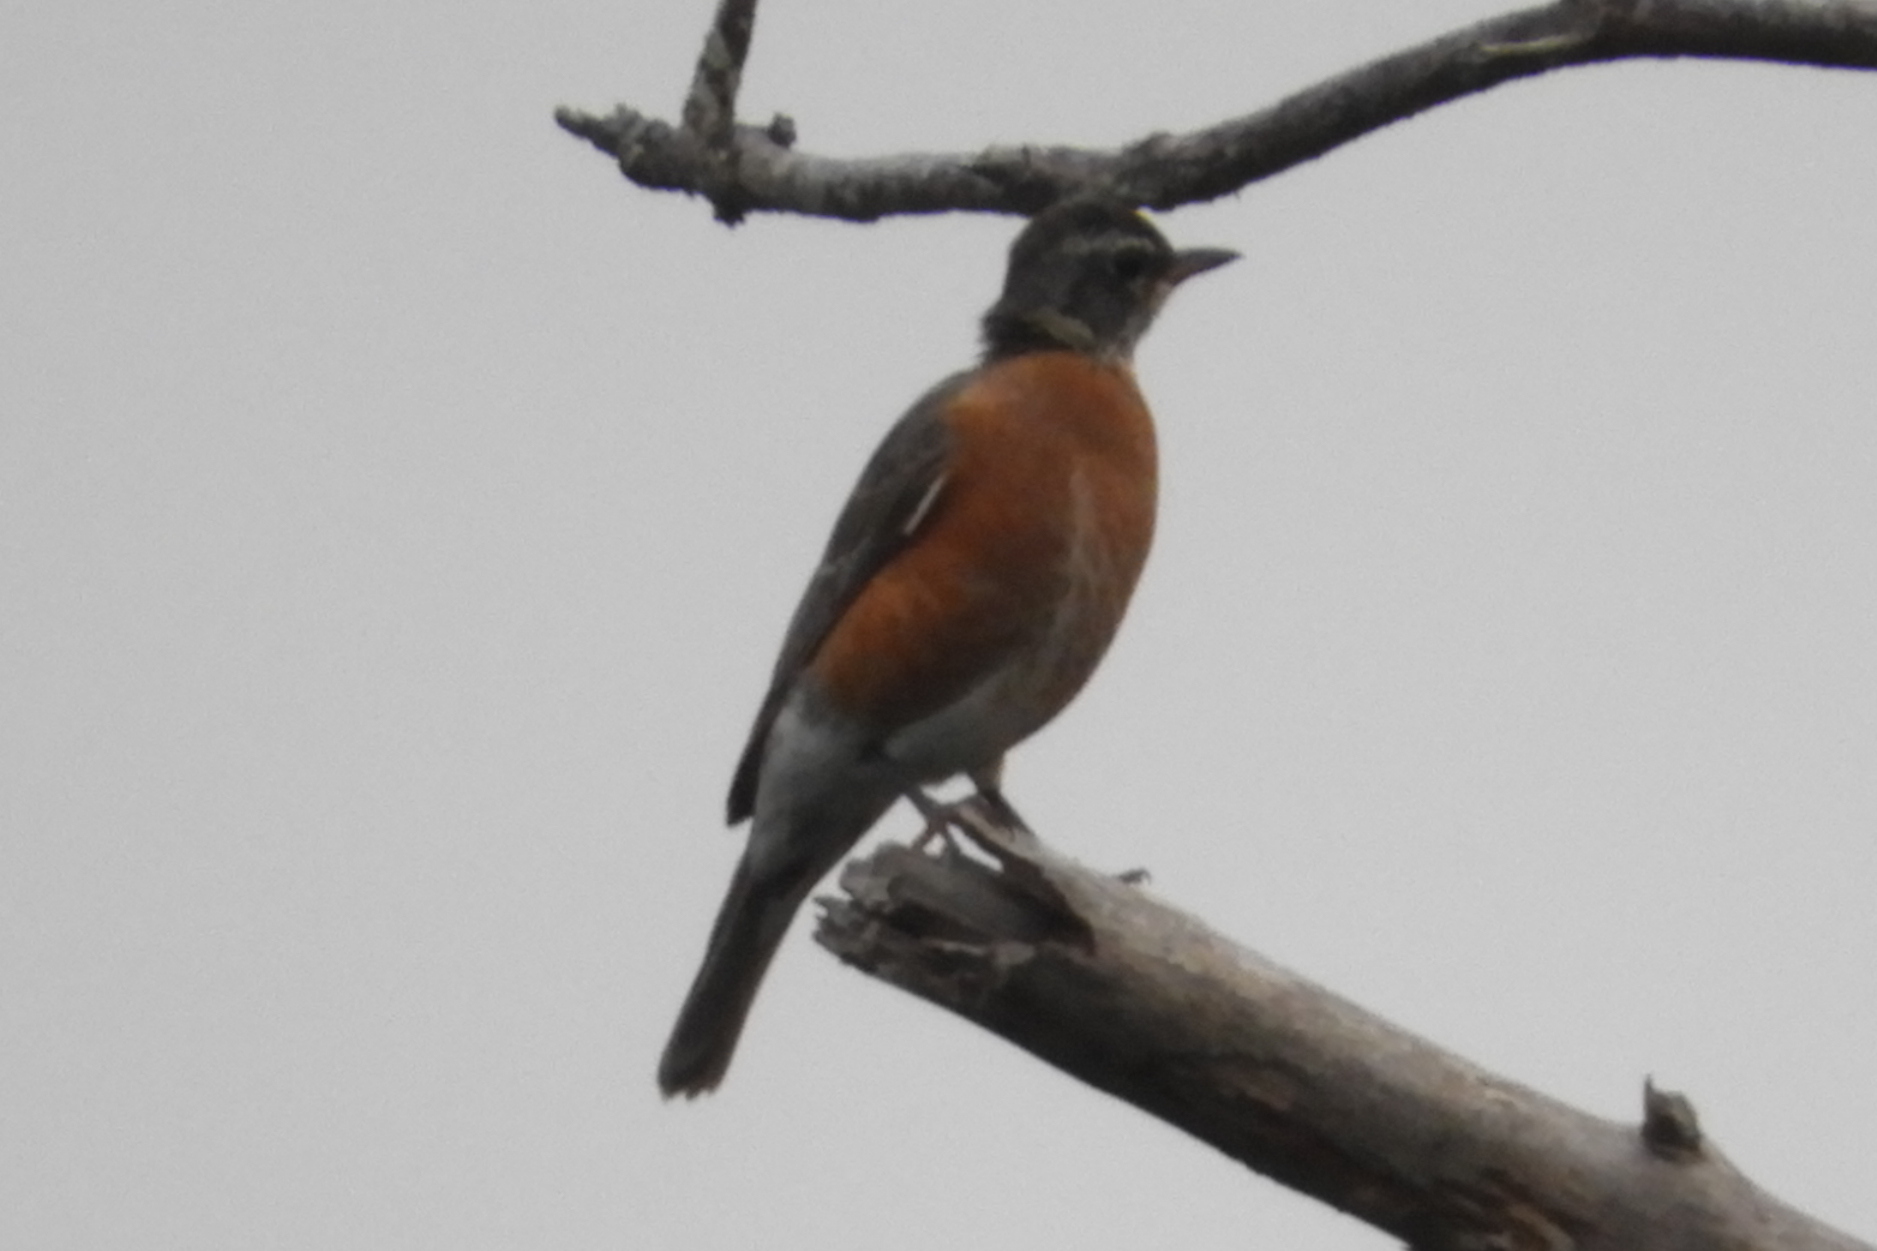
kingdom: Animalia
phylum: Chordata
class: Aves
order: Passeriformes
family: Turdidae
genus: Turdus
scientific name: Turdus migratorius
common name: American robin
